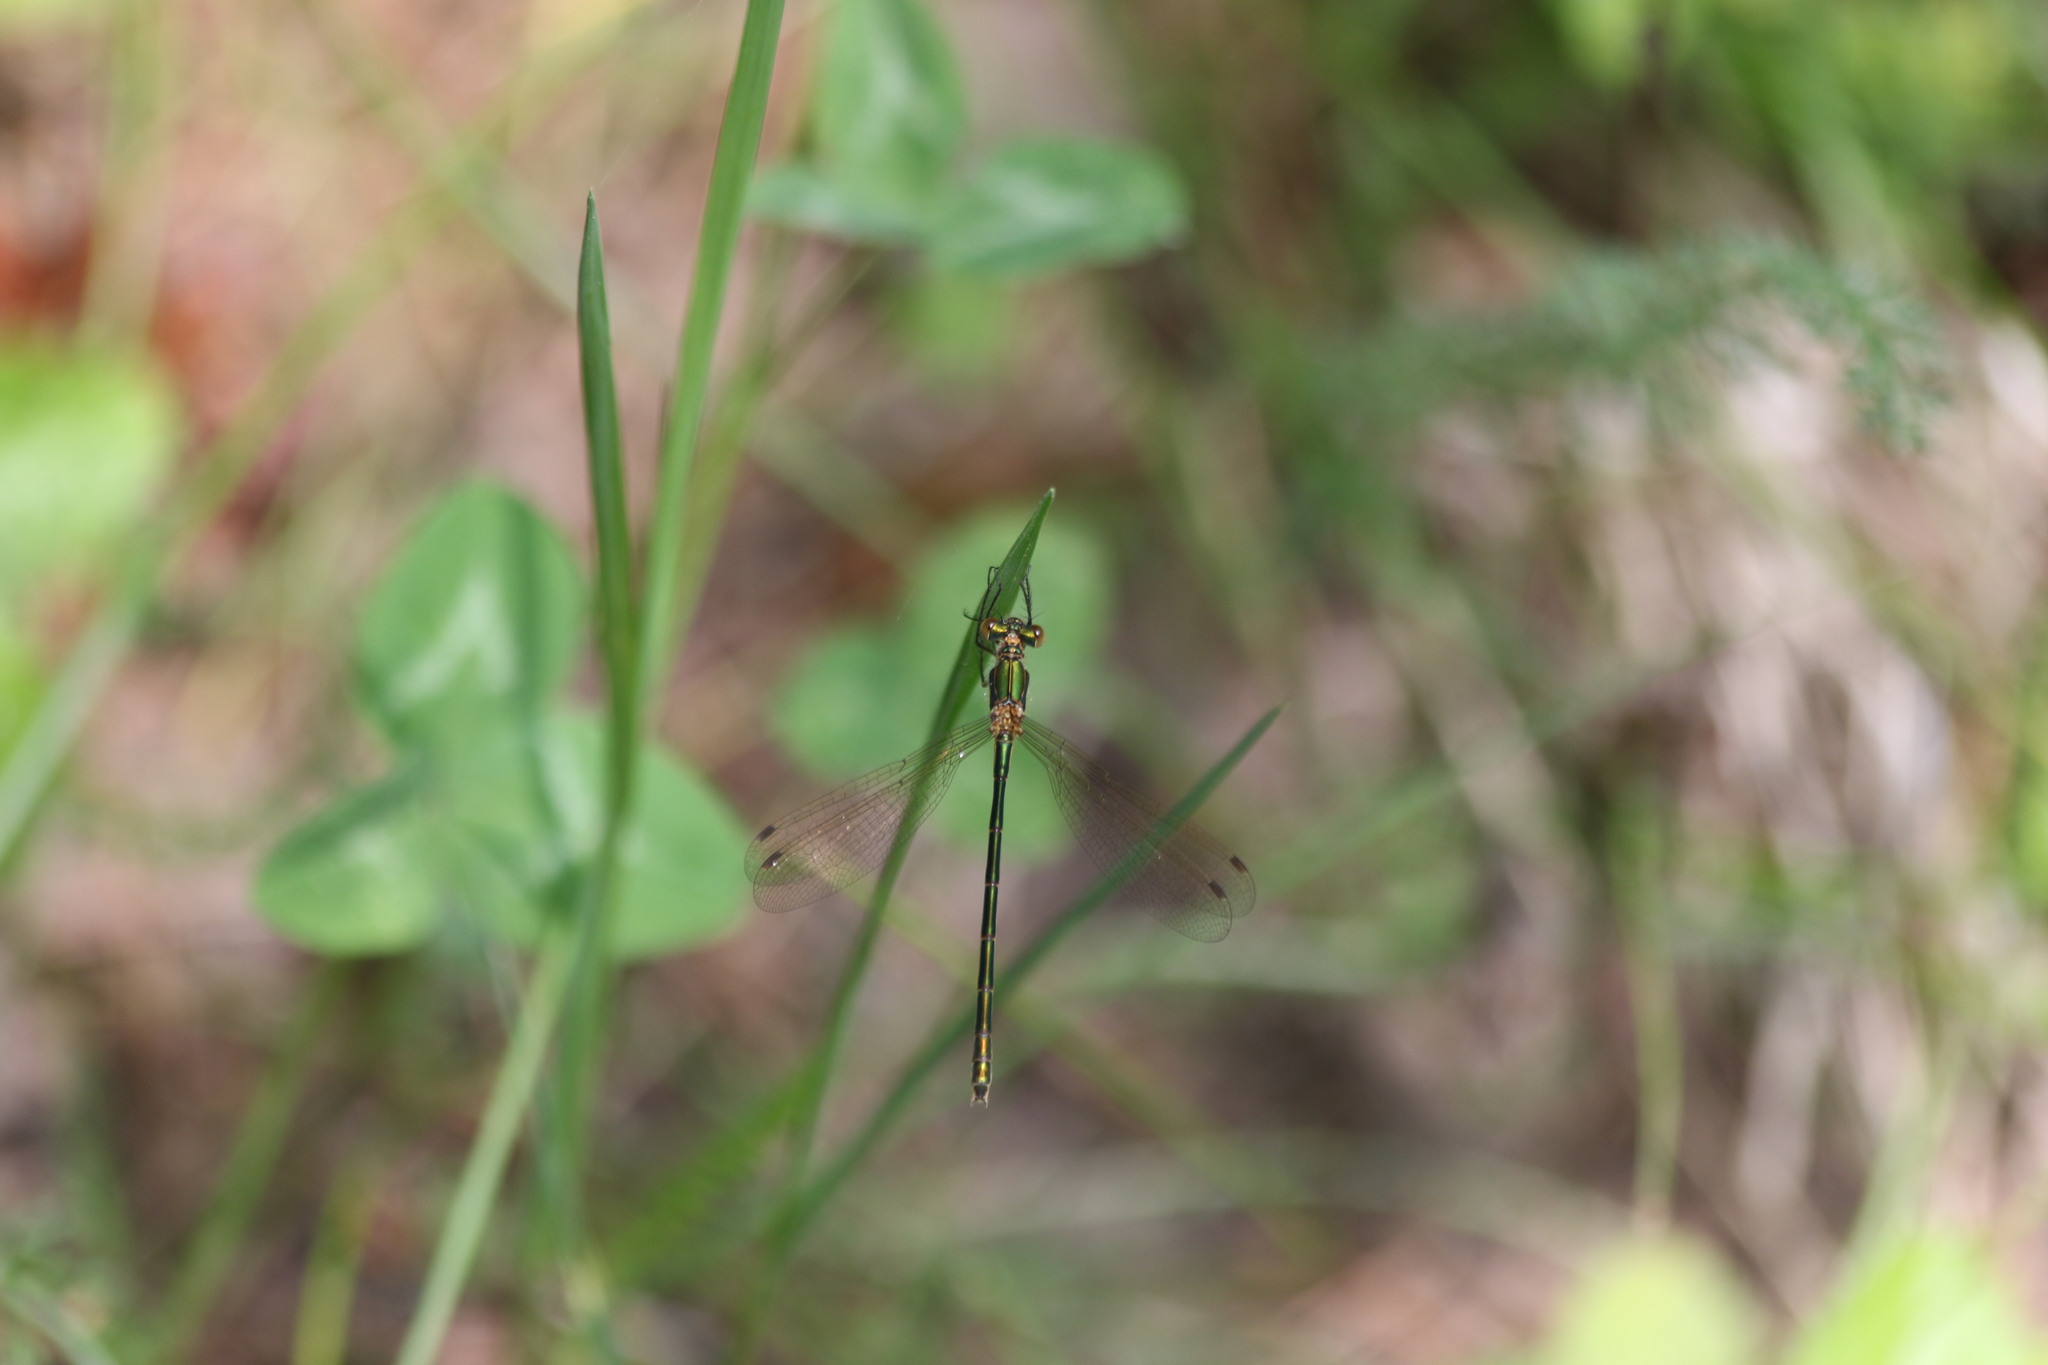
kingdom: Animalia
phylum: Arthropoda
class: Insecta
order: Odonata
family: Lestidae
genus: Lestes
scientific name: Lestes sponsa
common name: Common spreadwing
